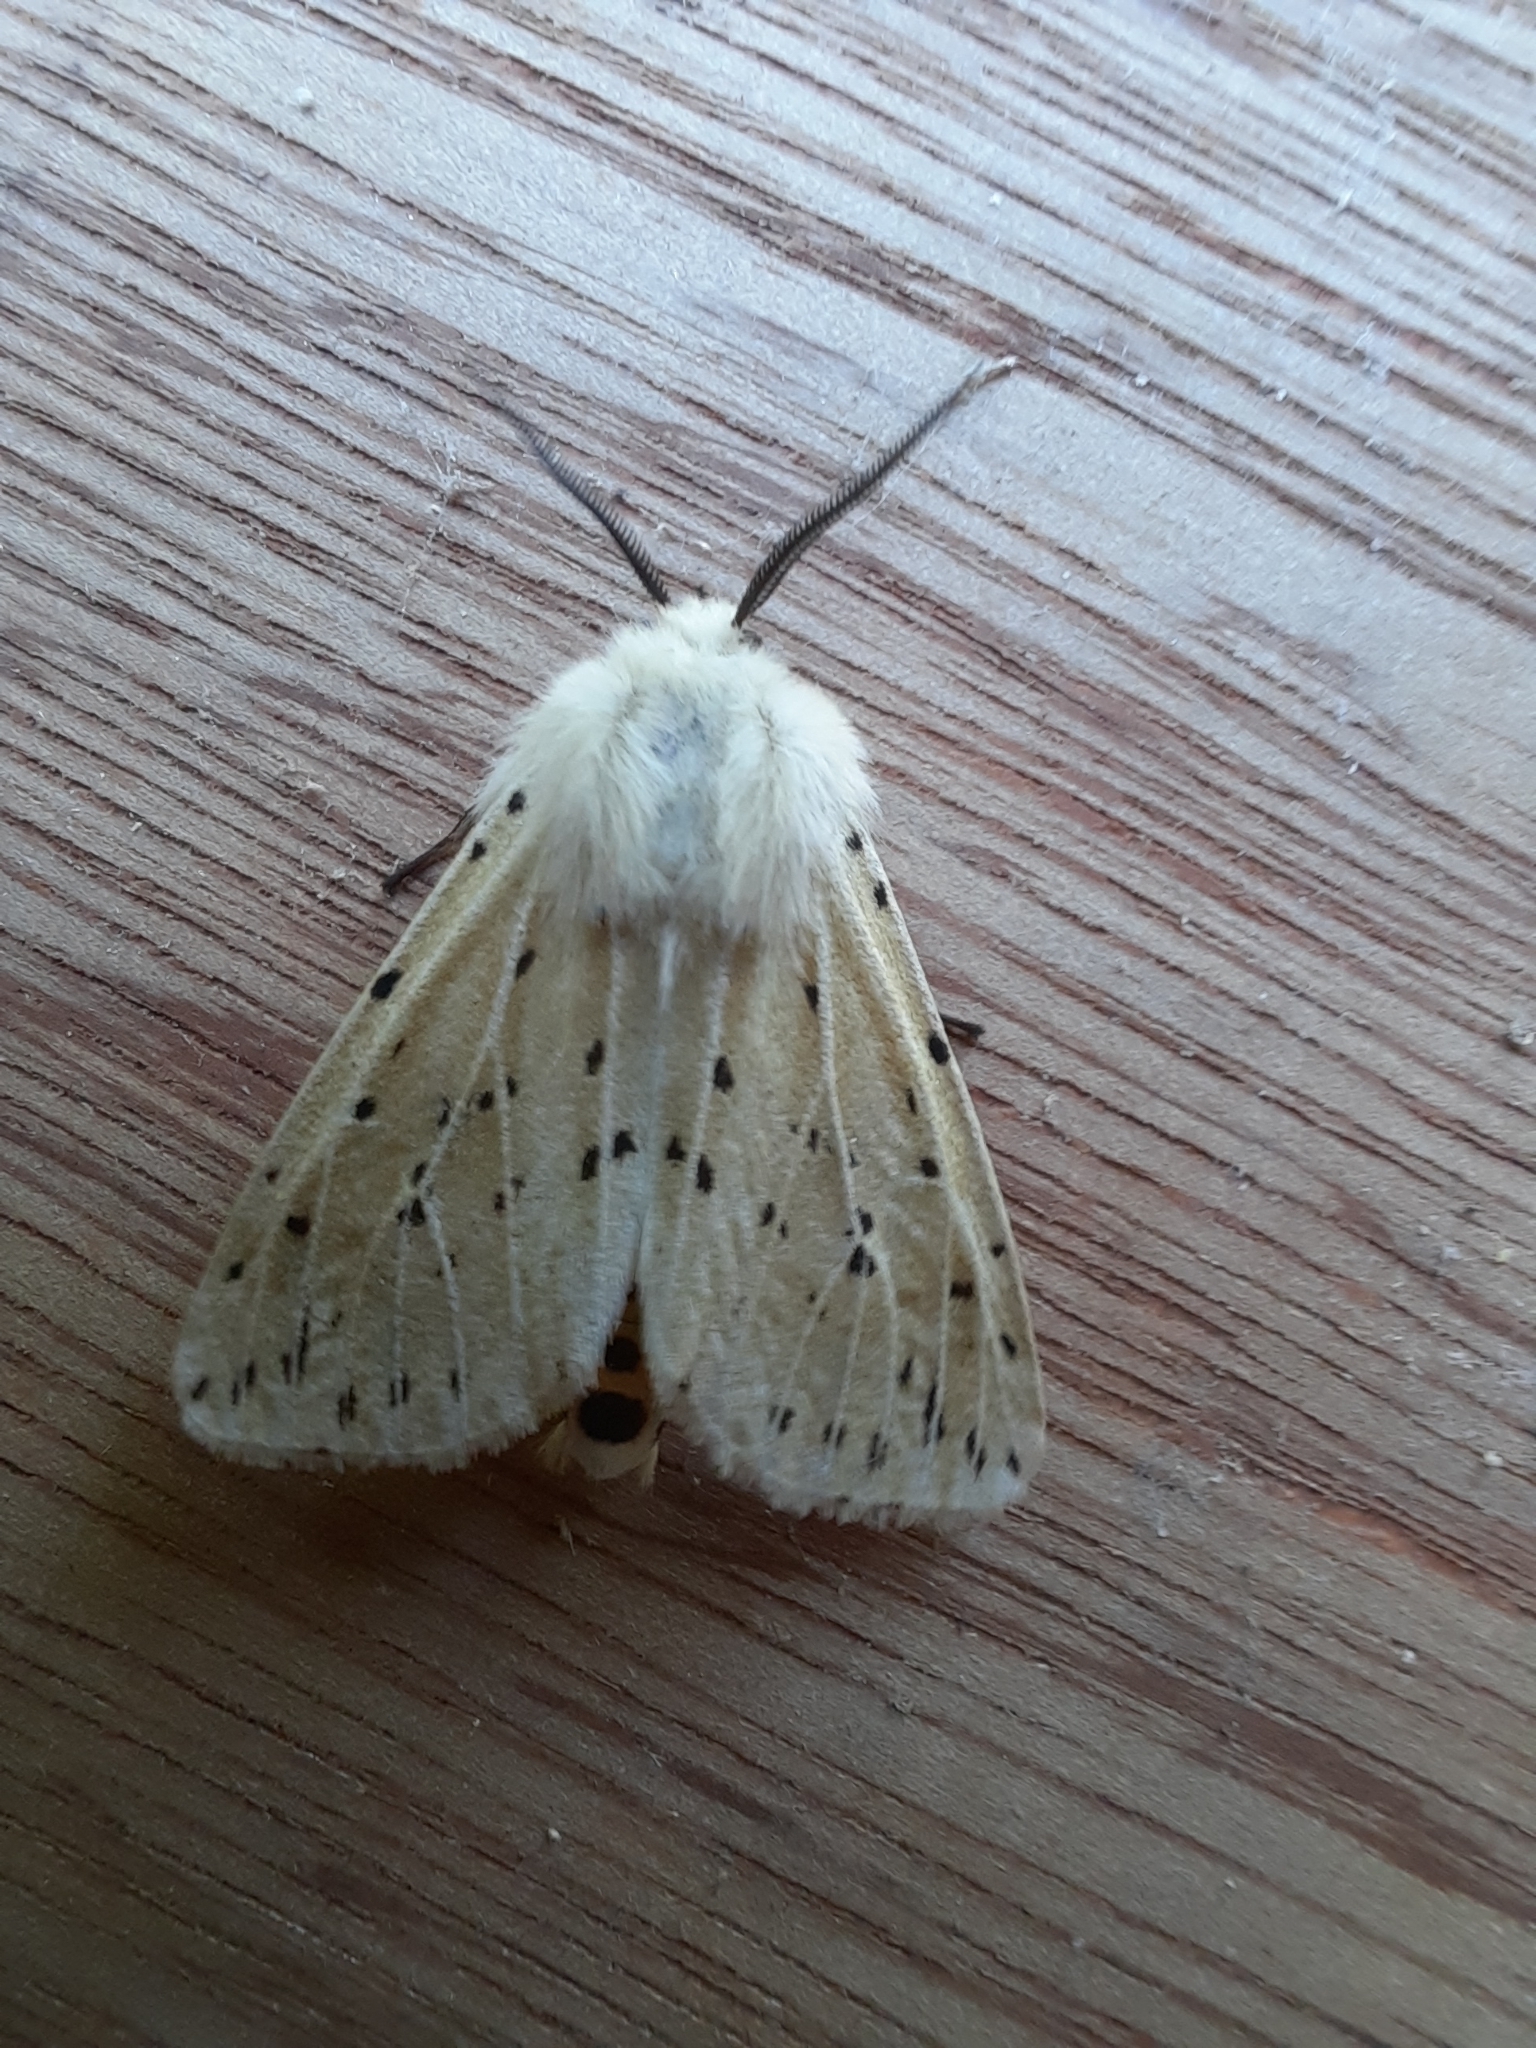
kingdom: Animalia
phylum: Arthropoda
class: Insecta
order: Lepidoptera
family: Erebidae
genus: Spilosoma
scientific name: Spilosoma lubricipeda
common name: White ermine
